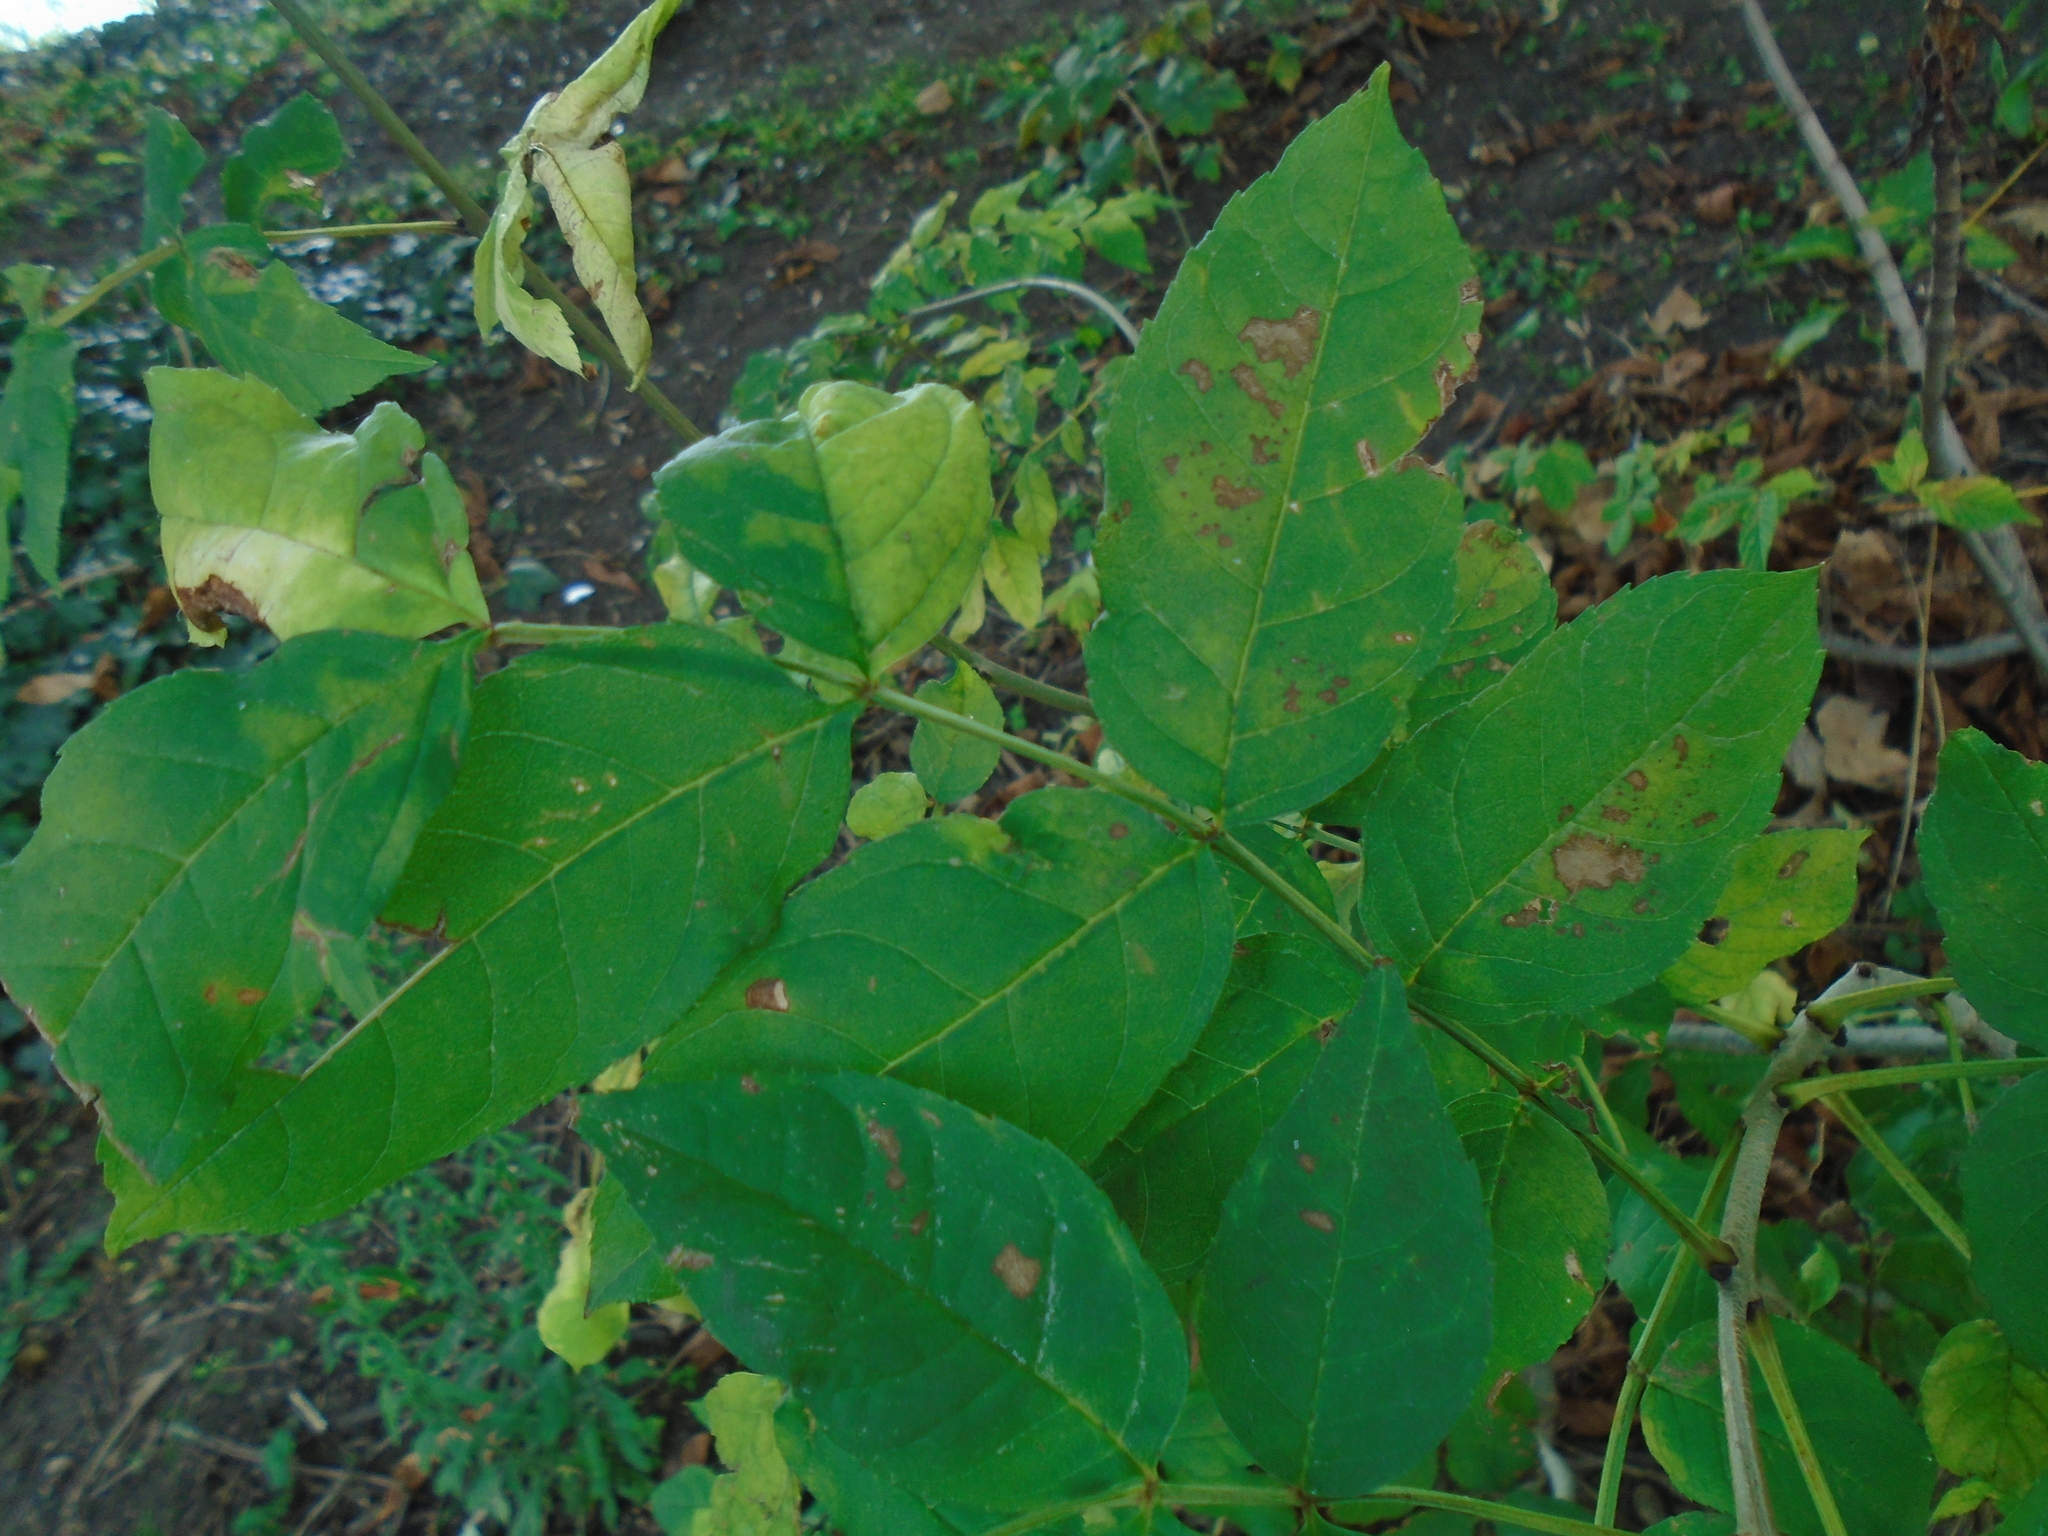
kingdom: Fungi
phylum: Ascomycota
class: Leotiomycetes
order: Helotiales
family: Erysiphaceae
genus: Phyllactinia
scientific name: Phyllactinia fraxini
